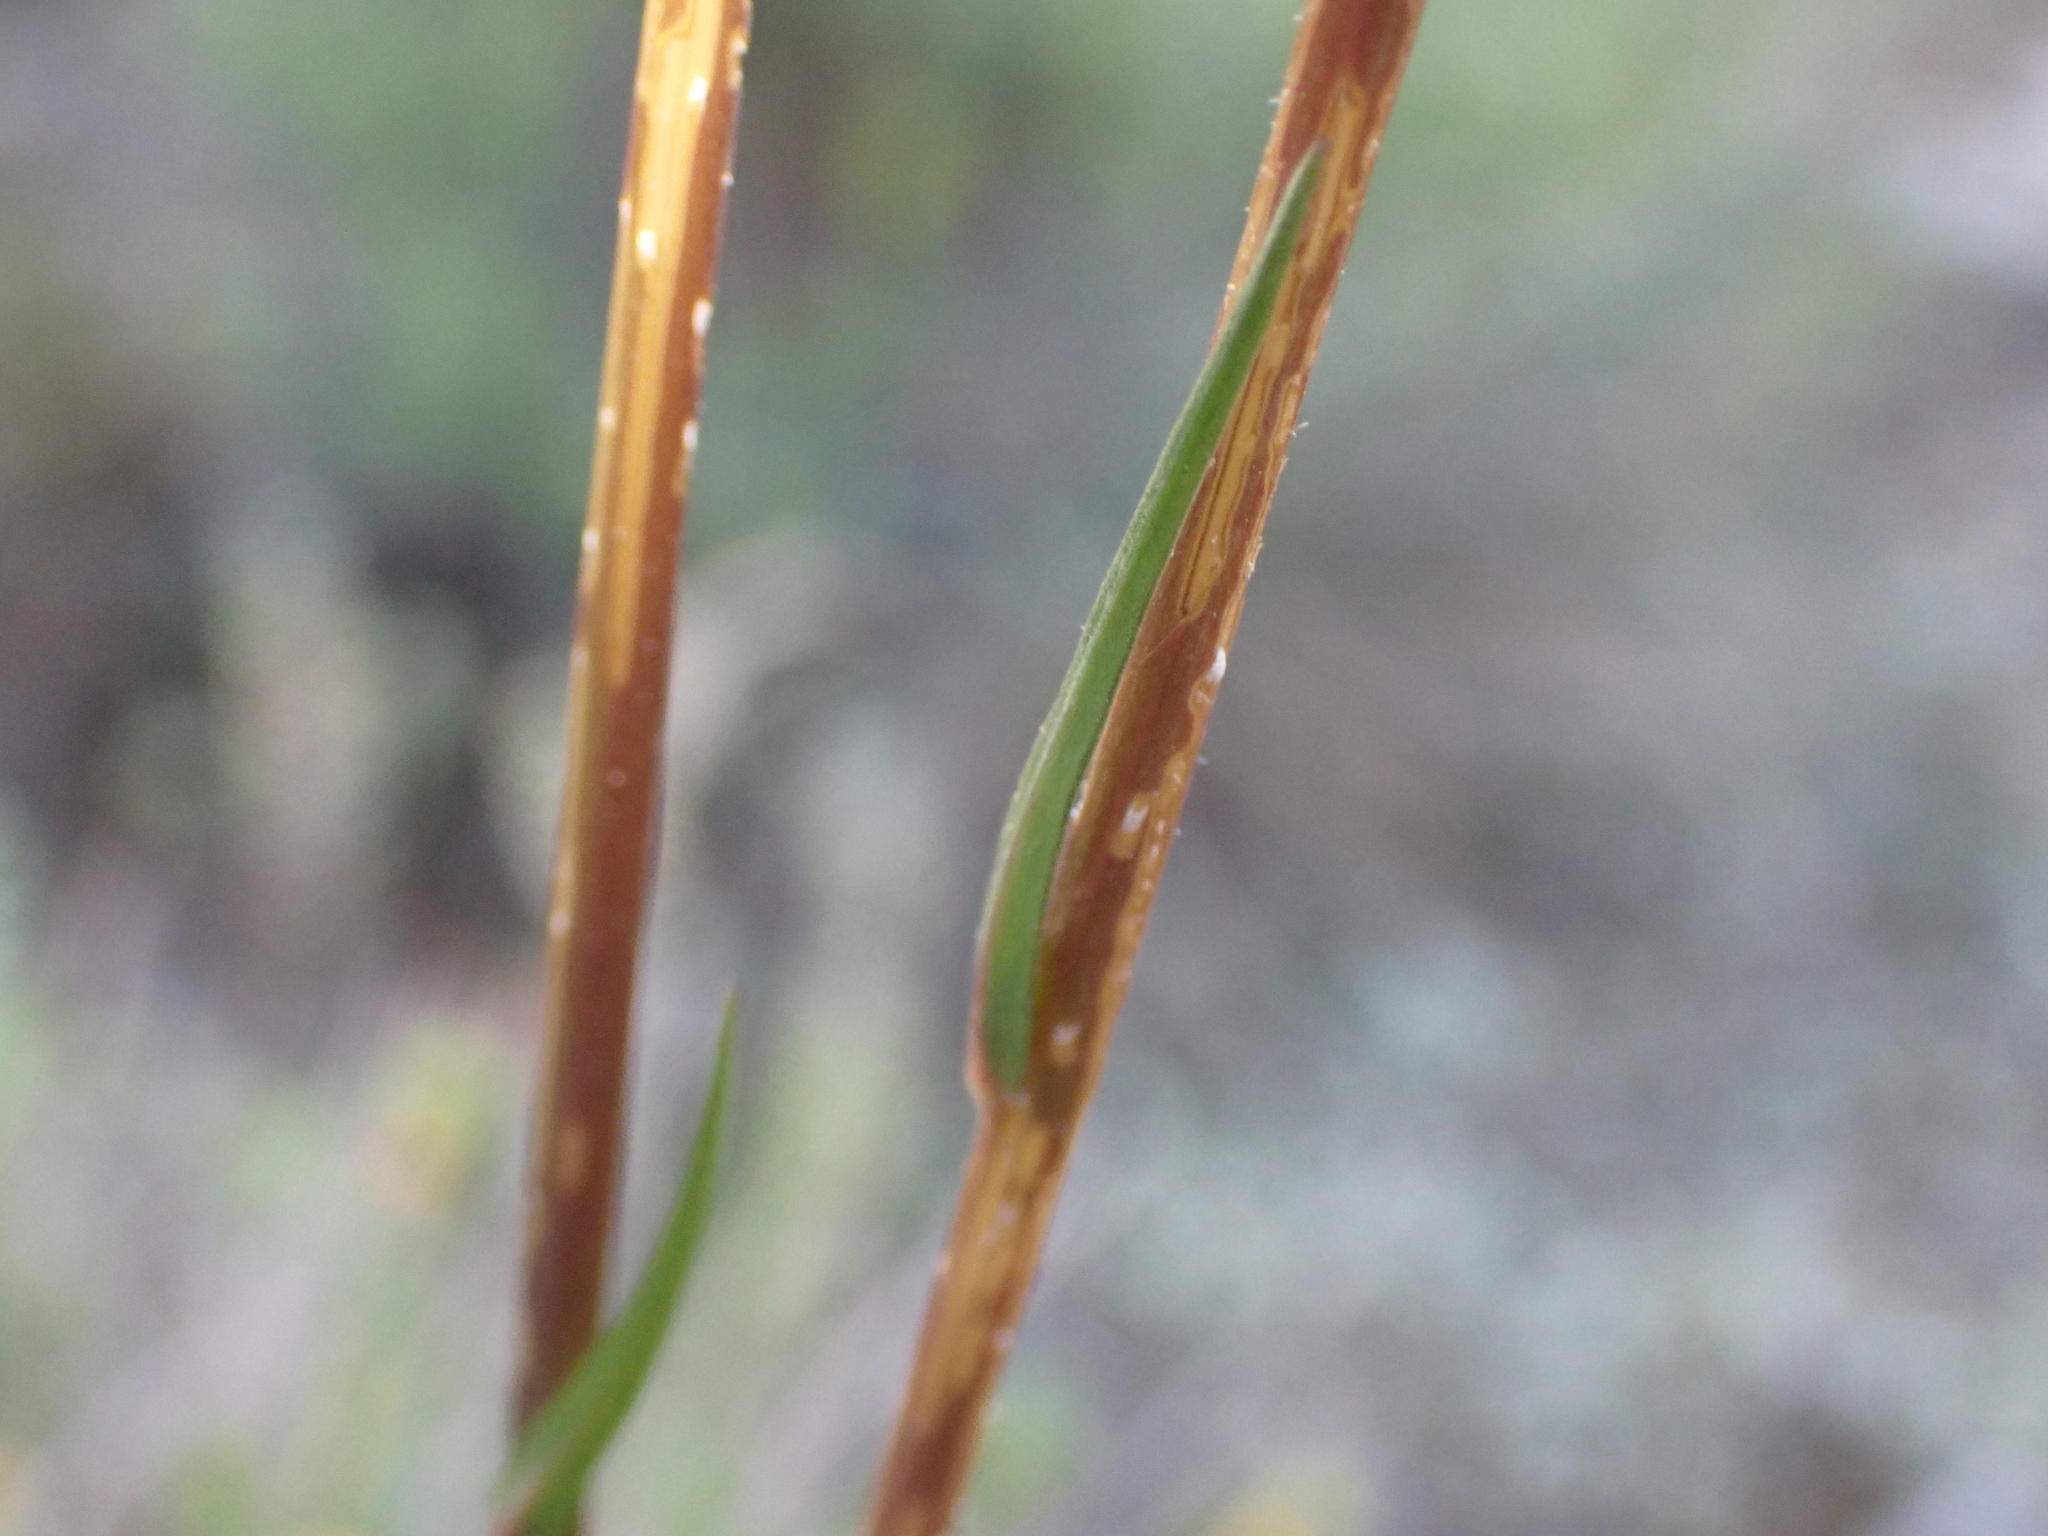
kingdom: Plantae
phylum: Tracheophyta
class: Magnoliopsida
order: Asterales
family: Campanulaceae
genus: Campanula
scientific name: Campanula rapunculus
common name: Rampion bellflower
